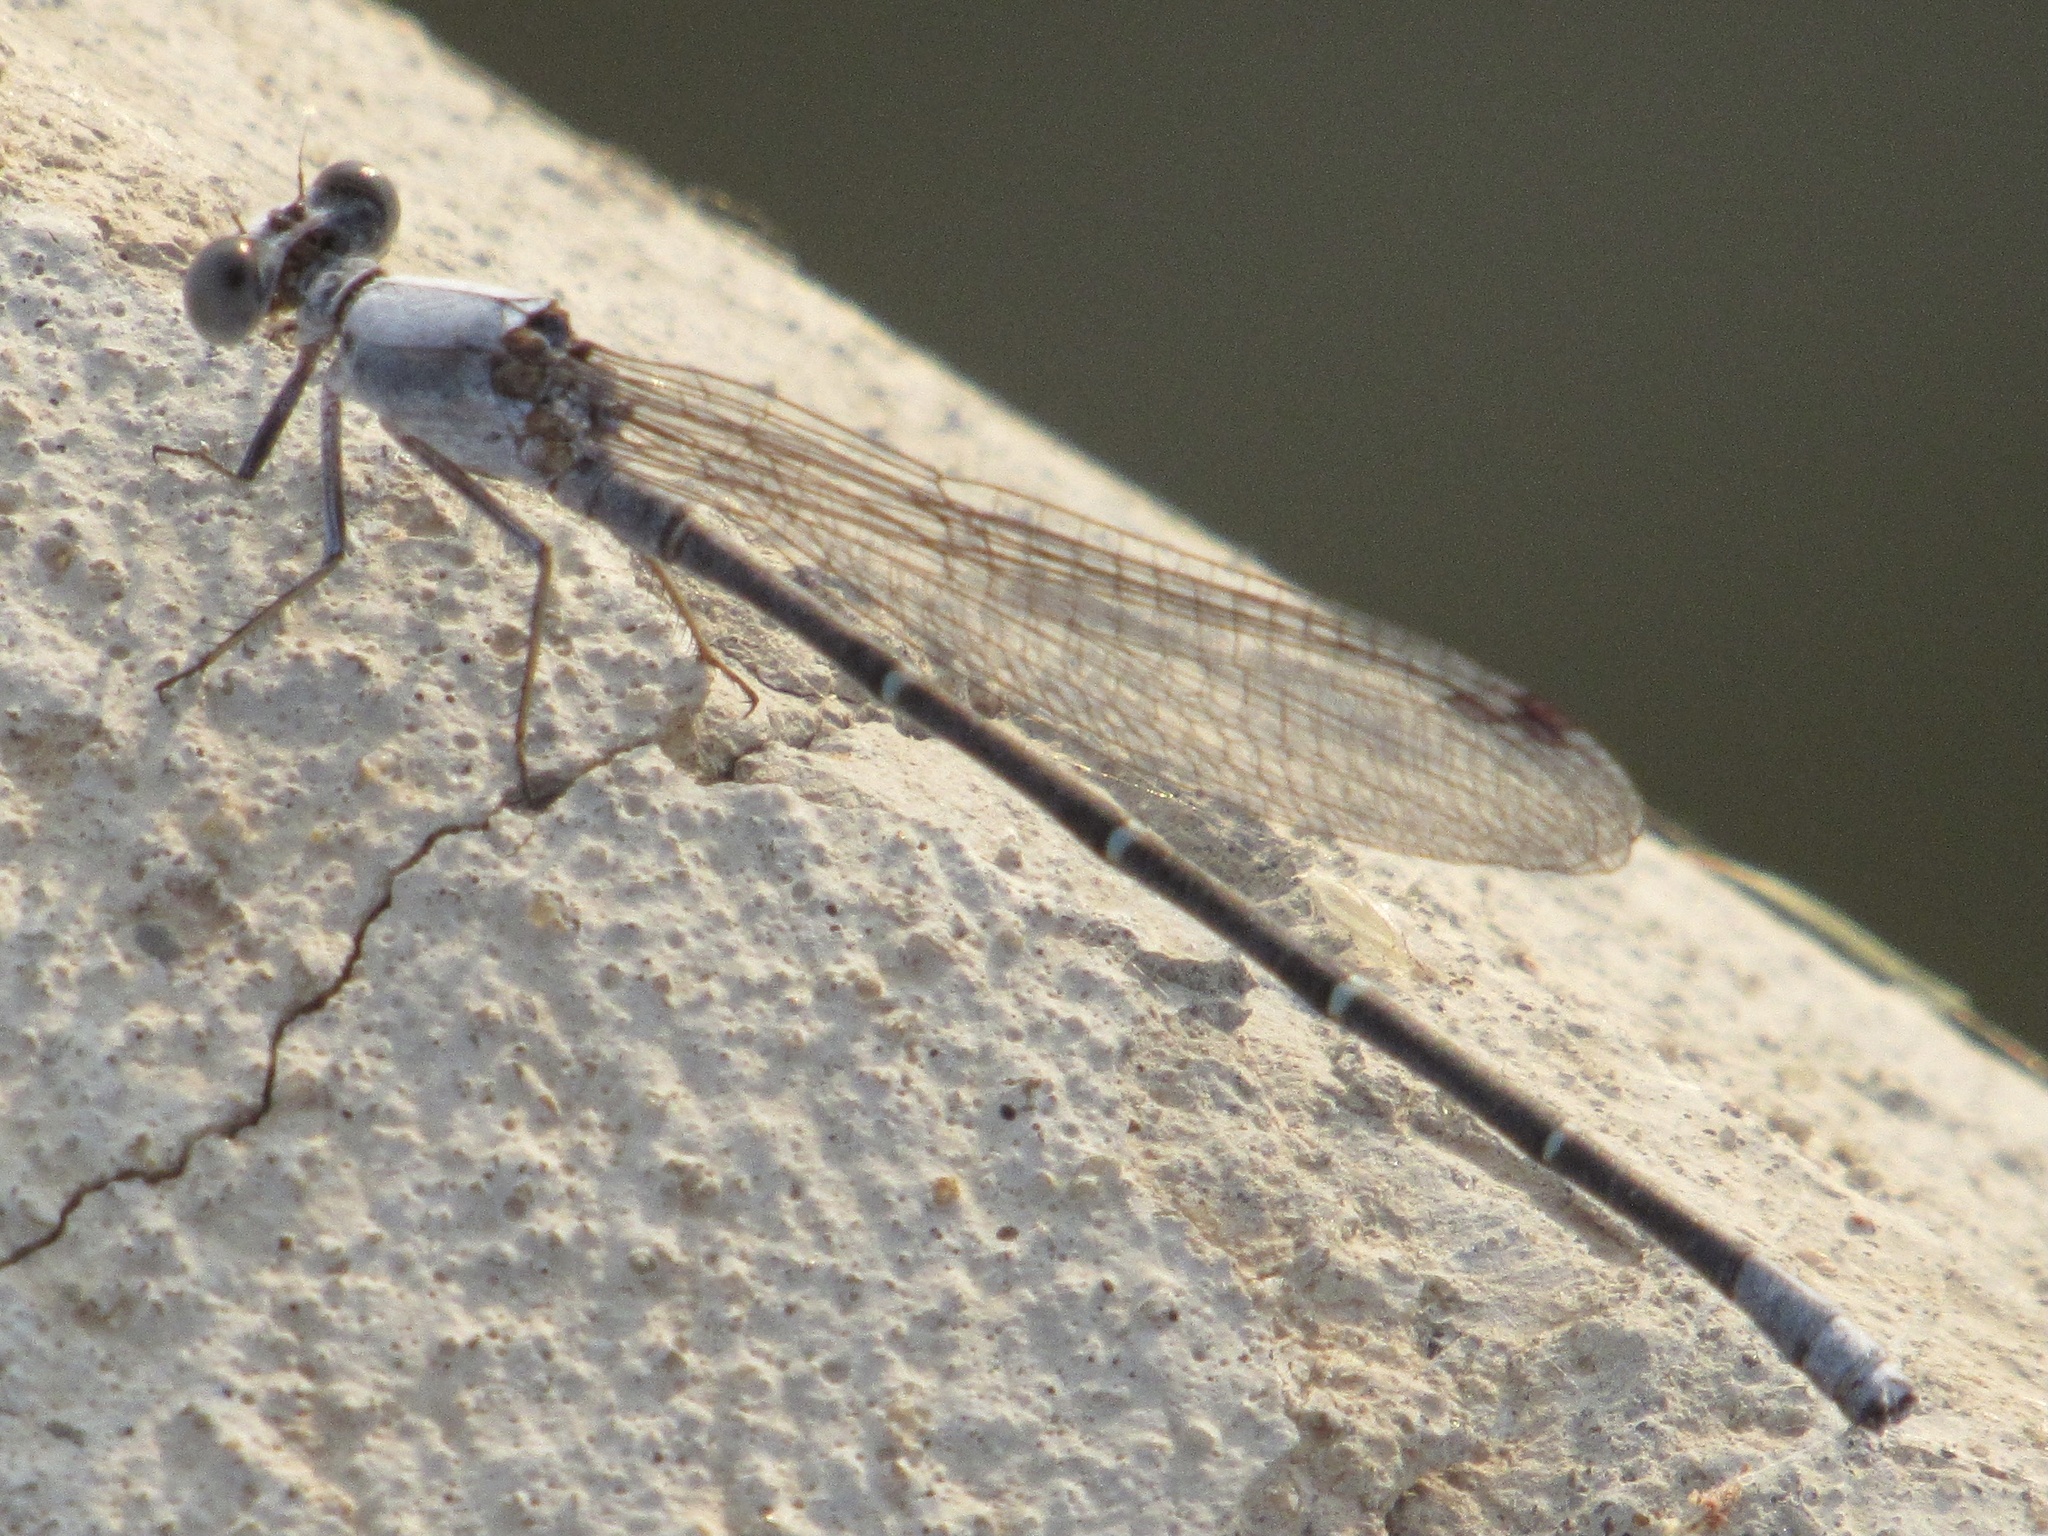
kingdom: Animalia
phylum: Arthropoda
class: Insecta
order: Odonata
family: Coenagrionidae
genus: Argia
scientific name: Argia moesta
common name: Powdered dancer
